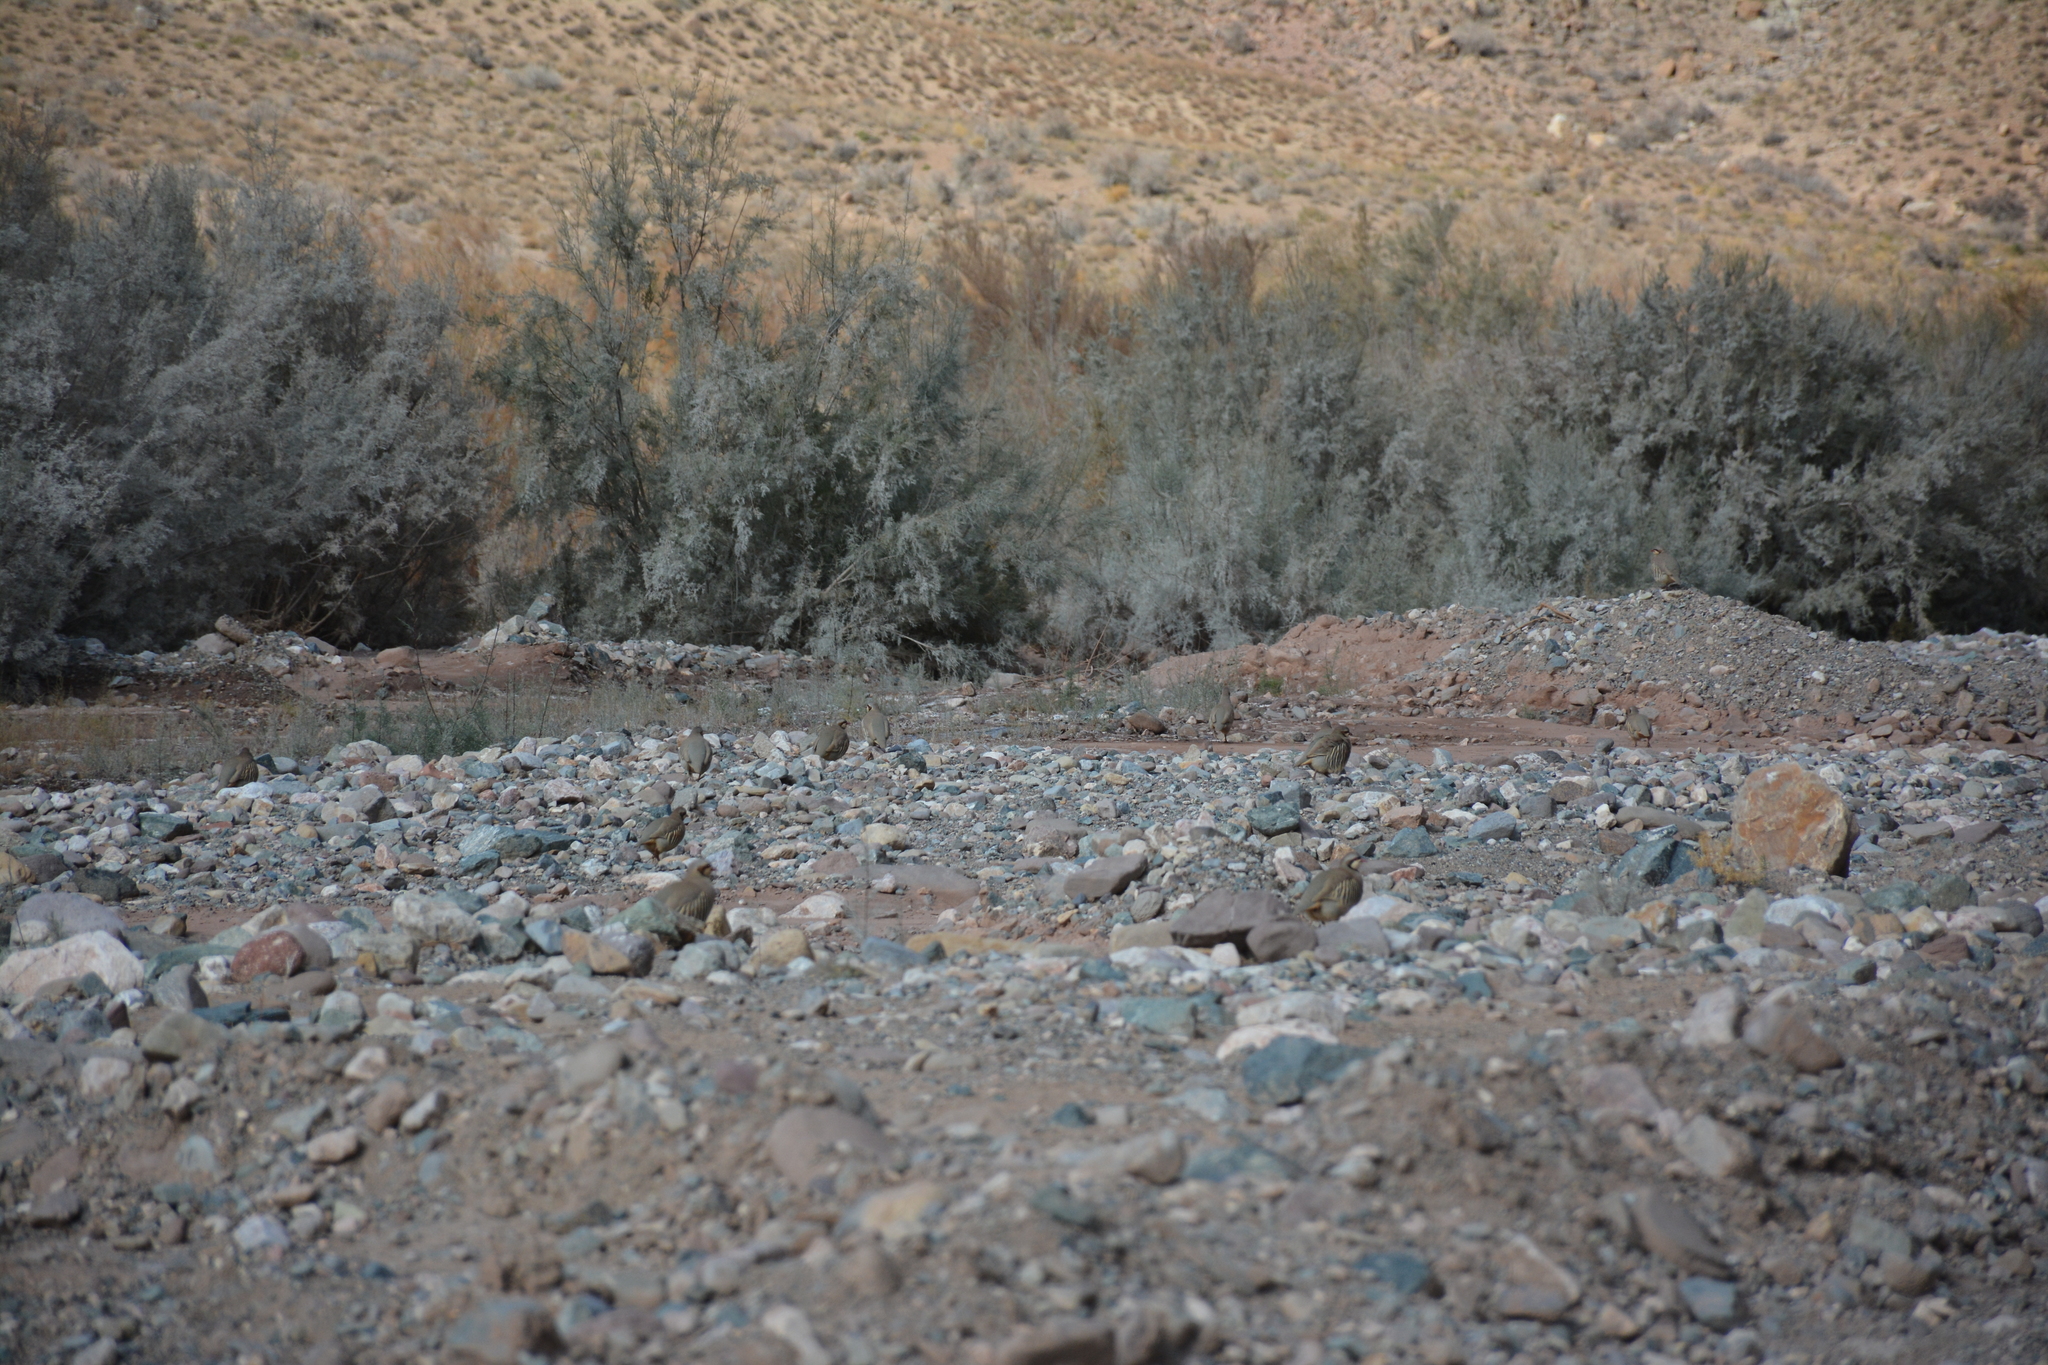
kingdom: Animalia
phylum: Chordata
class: Aves
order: Galliformes
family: Phasianidae
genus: Alectoris
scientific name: Alectoris chukar
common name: Chukar
